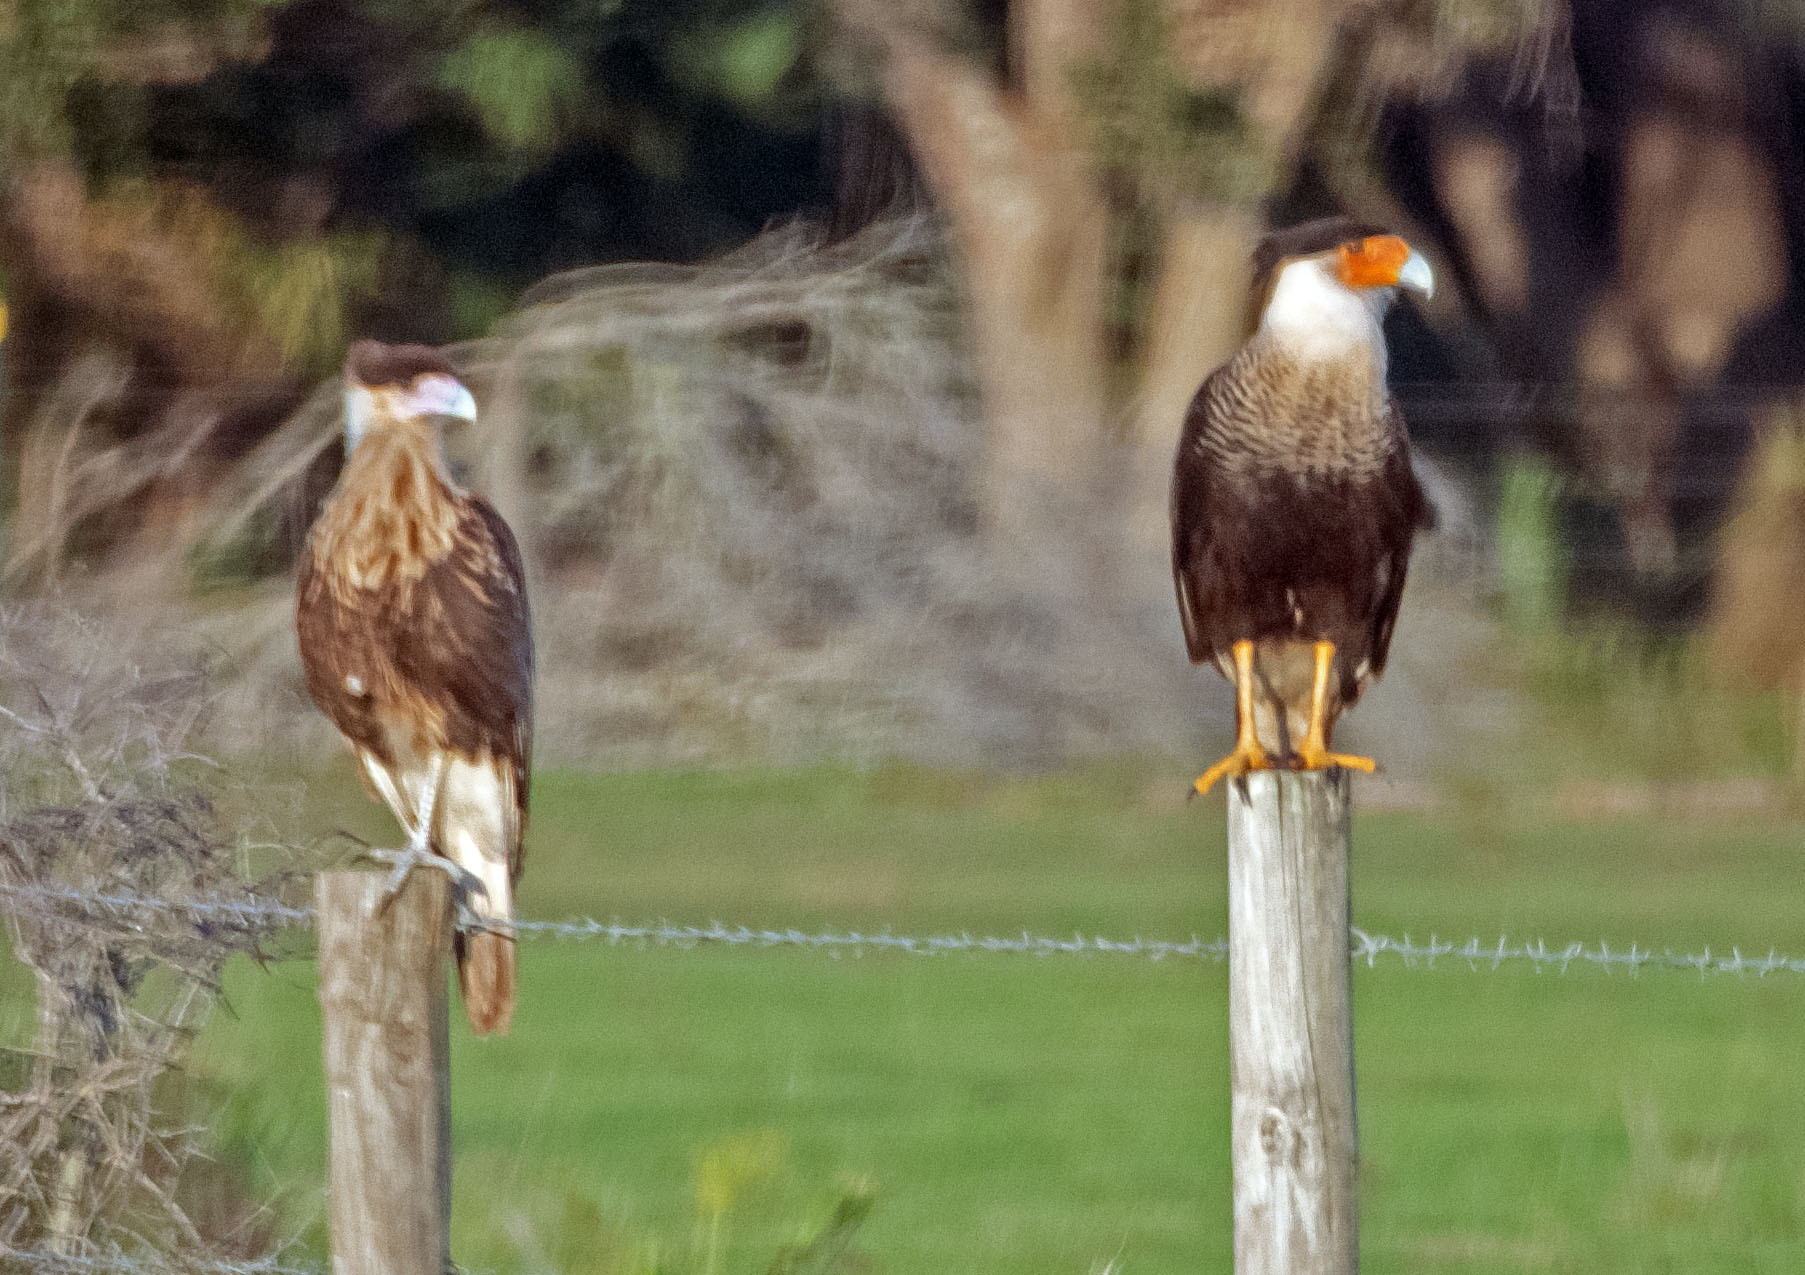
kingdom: Animalia
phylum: Chordata
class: Aves
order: Falconiformes
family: Falconidae
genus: Caracara
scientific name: Caracara plancus
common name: Southern caracara
